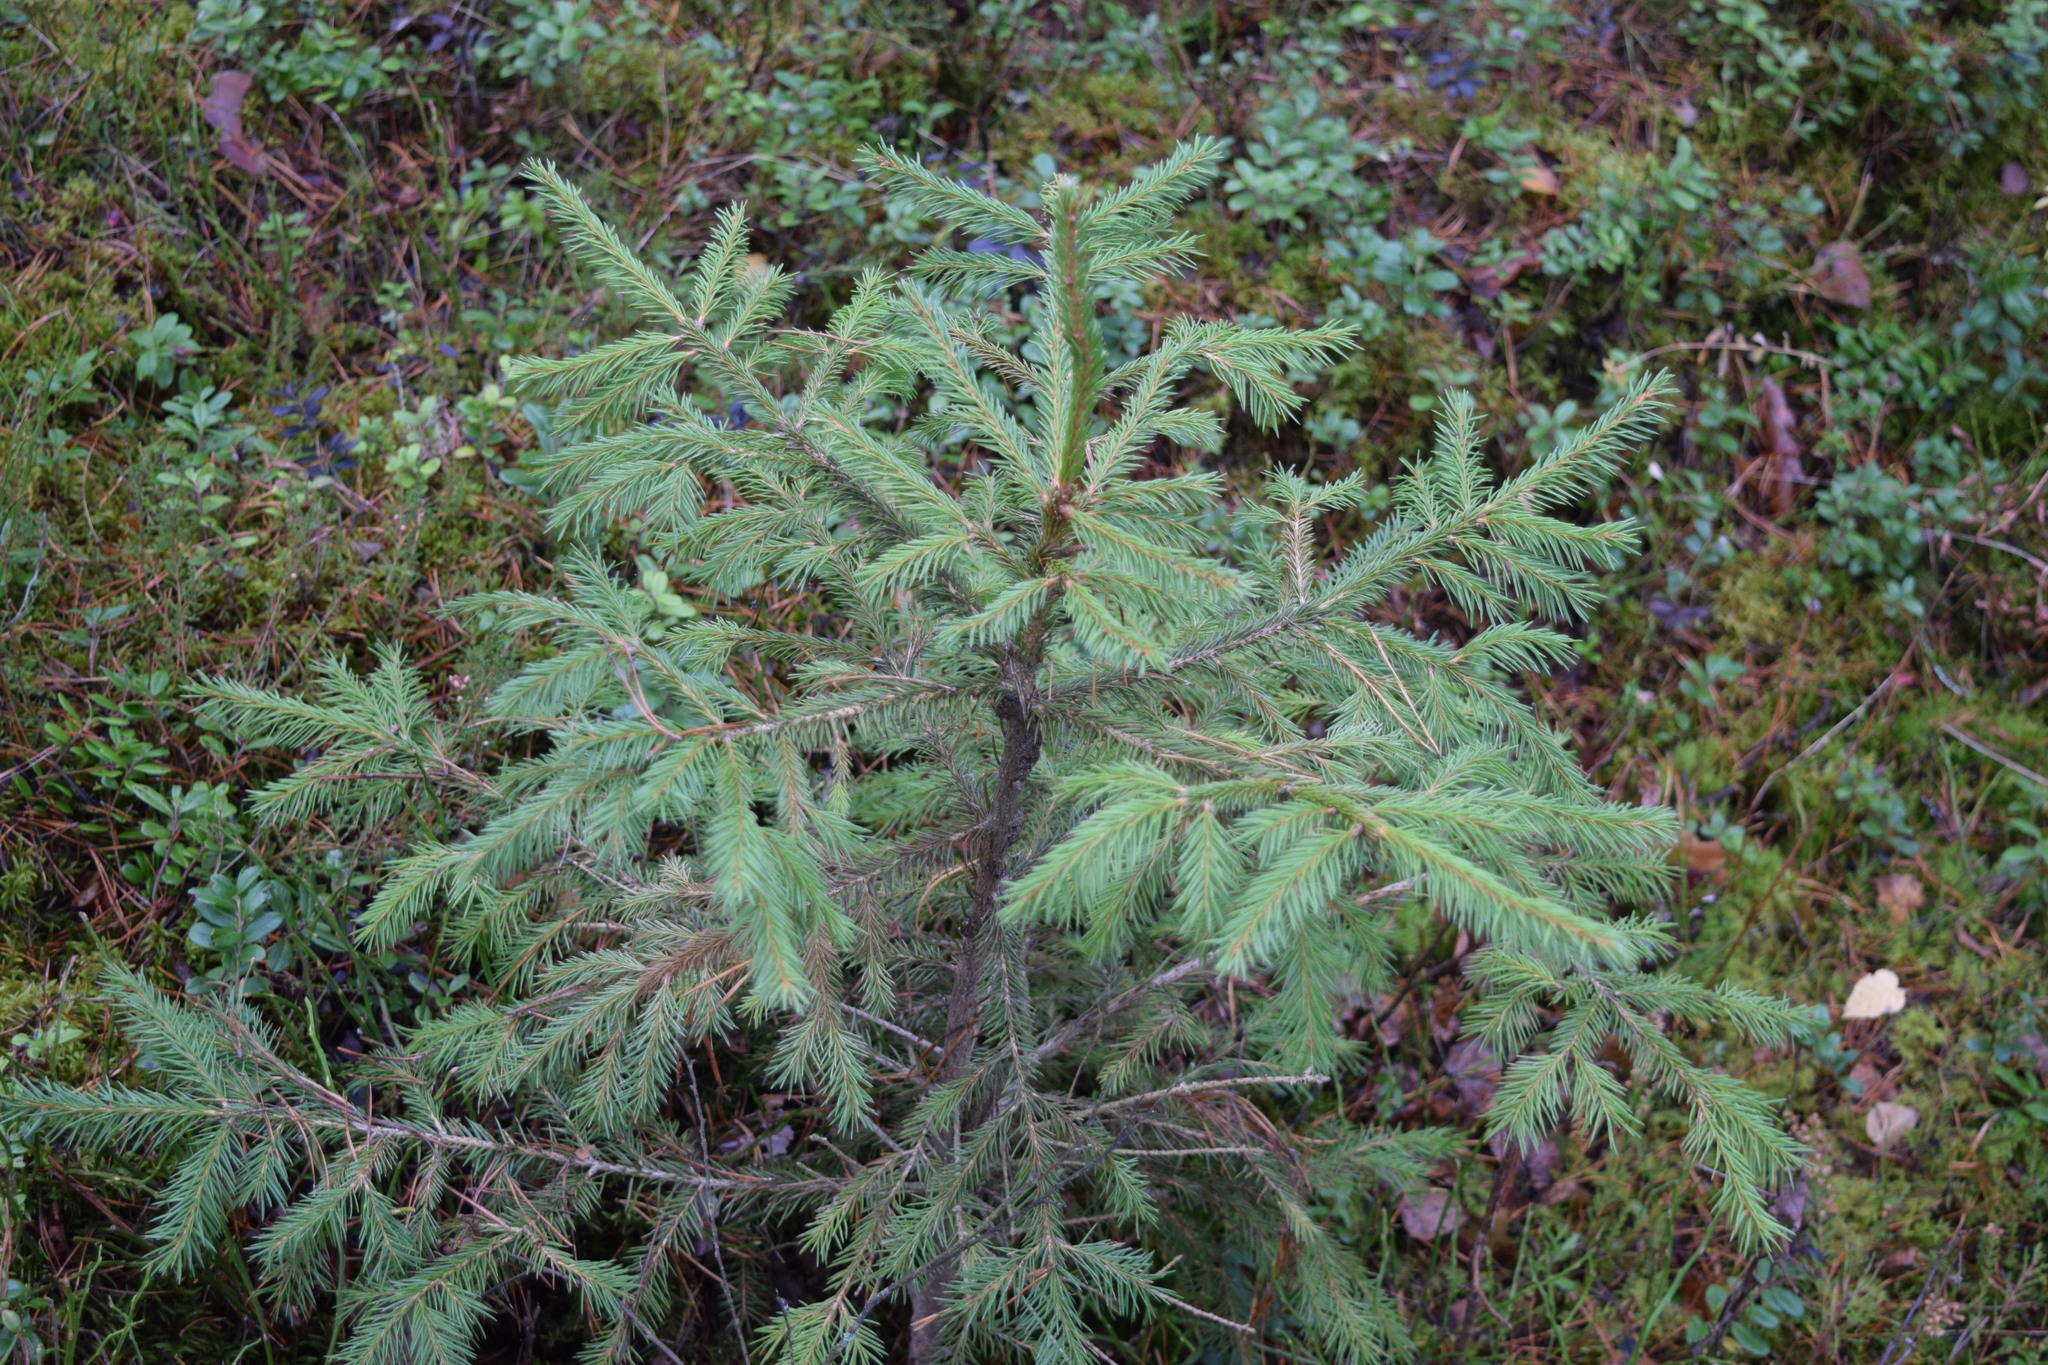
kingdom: Plantae
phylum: Tracheophyta
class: Pinopsida
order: Pinales
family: Pinaceae
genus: Picea
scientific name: Picea abies
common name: Norway spruce
